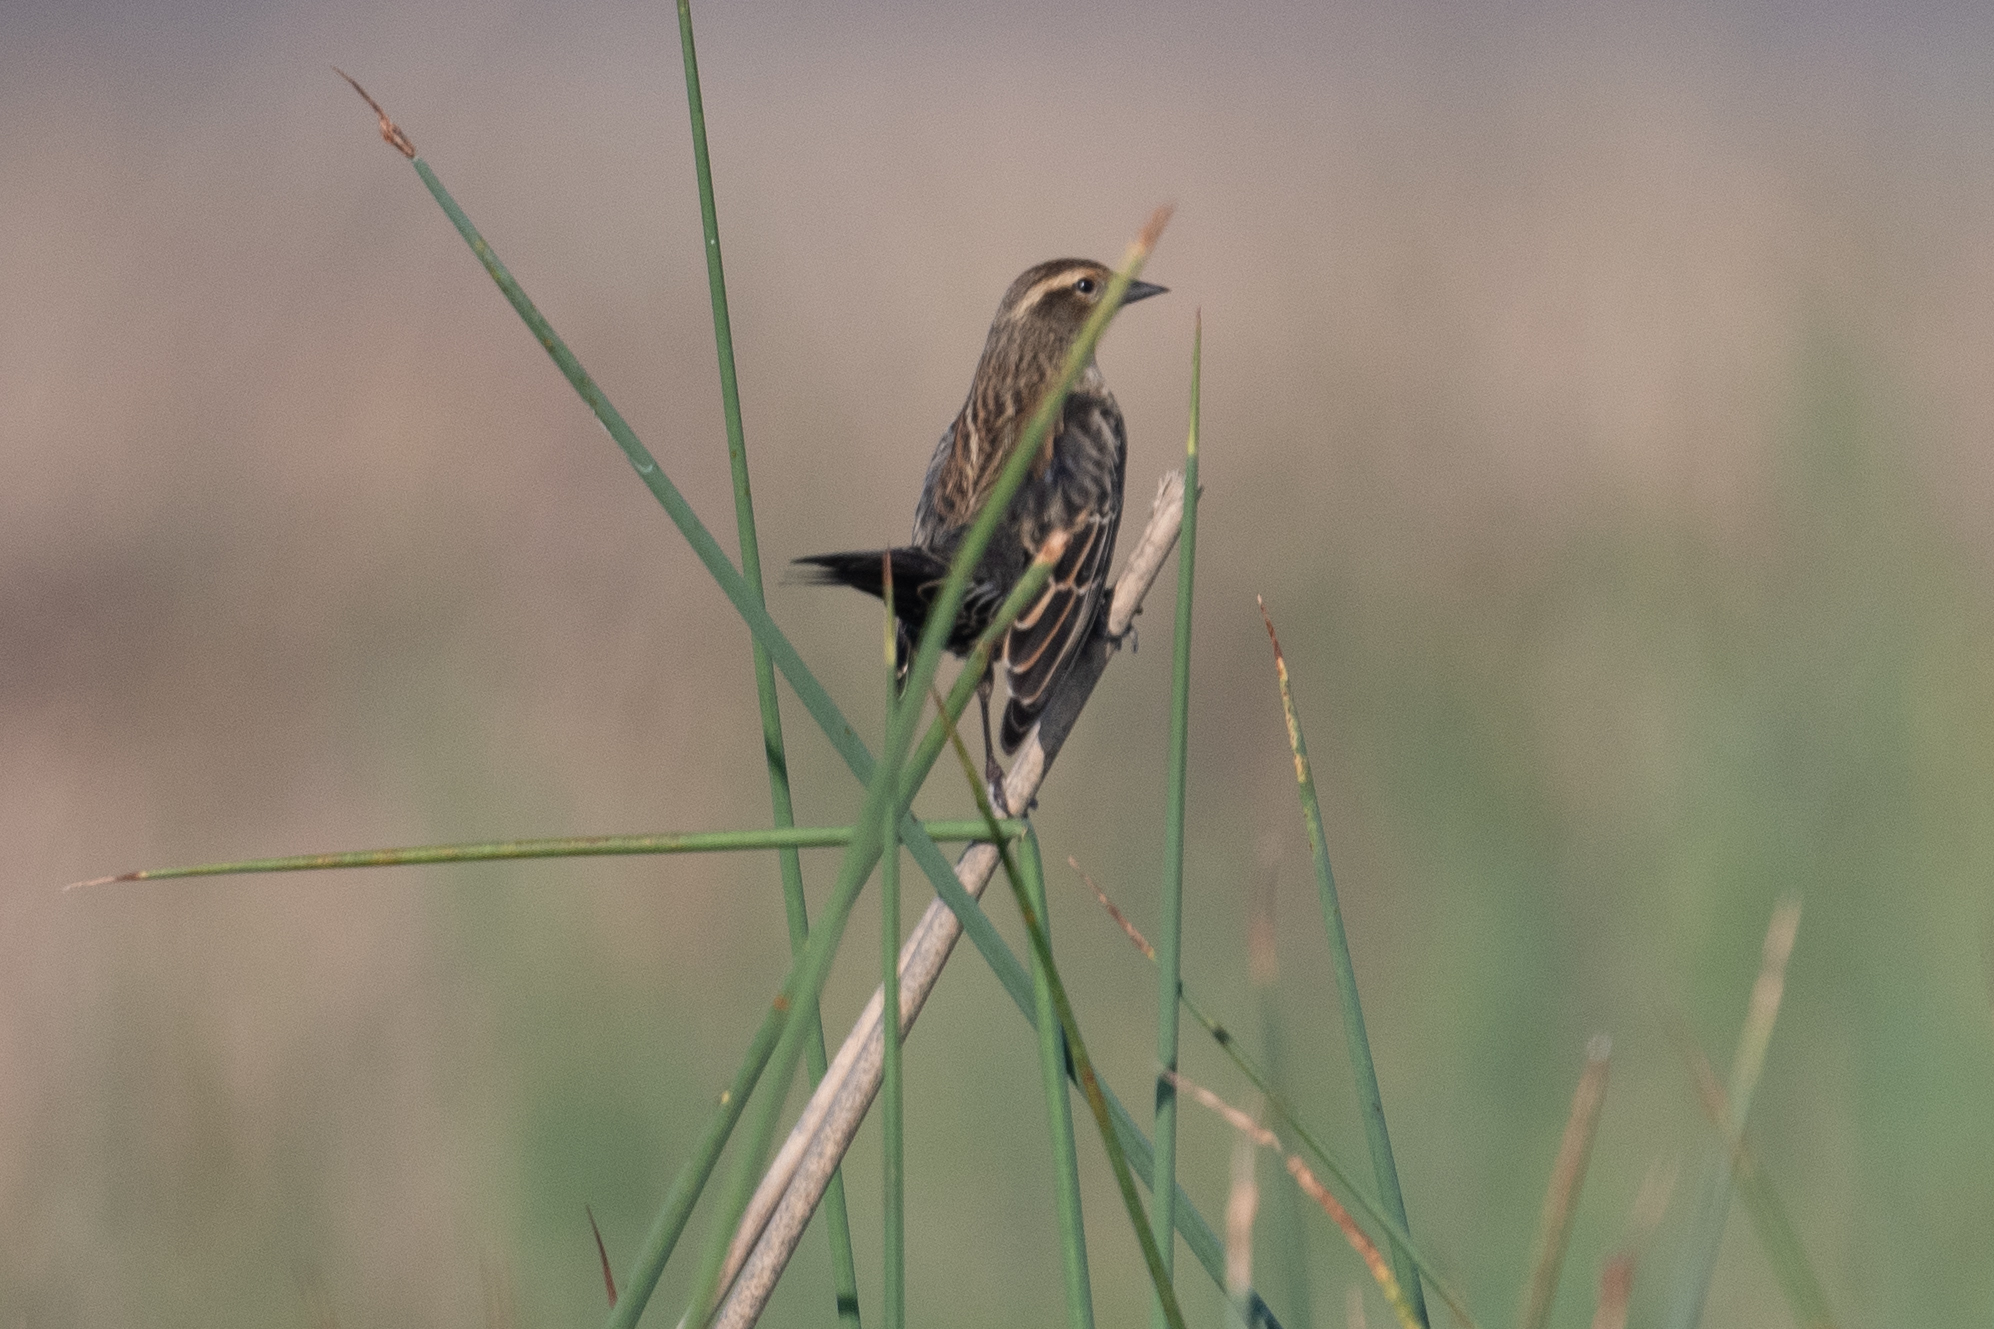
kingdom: Animalia
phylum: Chordata
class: Aves
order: Passeriformes
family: Icteridae
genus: Agelaius
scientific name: Agelaius phoeniceus
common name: Red-winged blackbird
